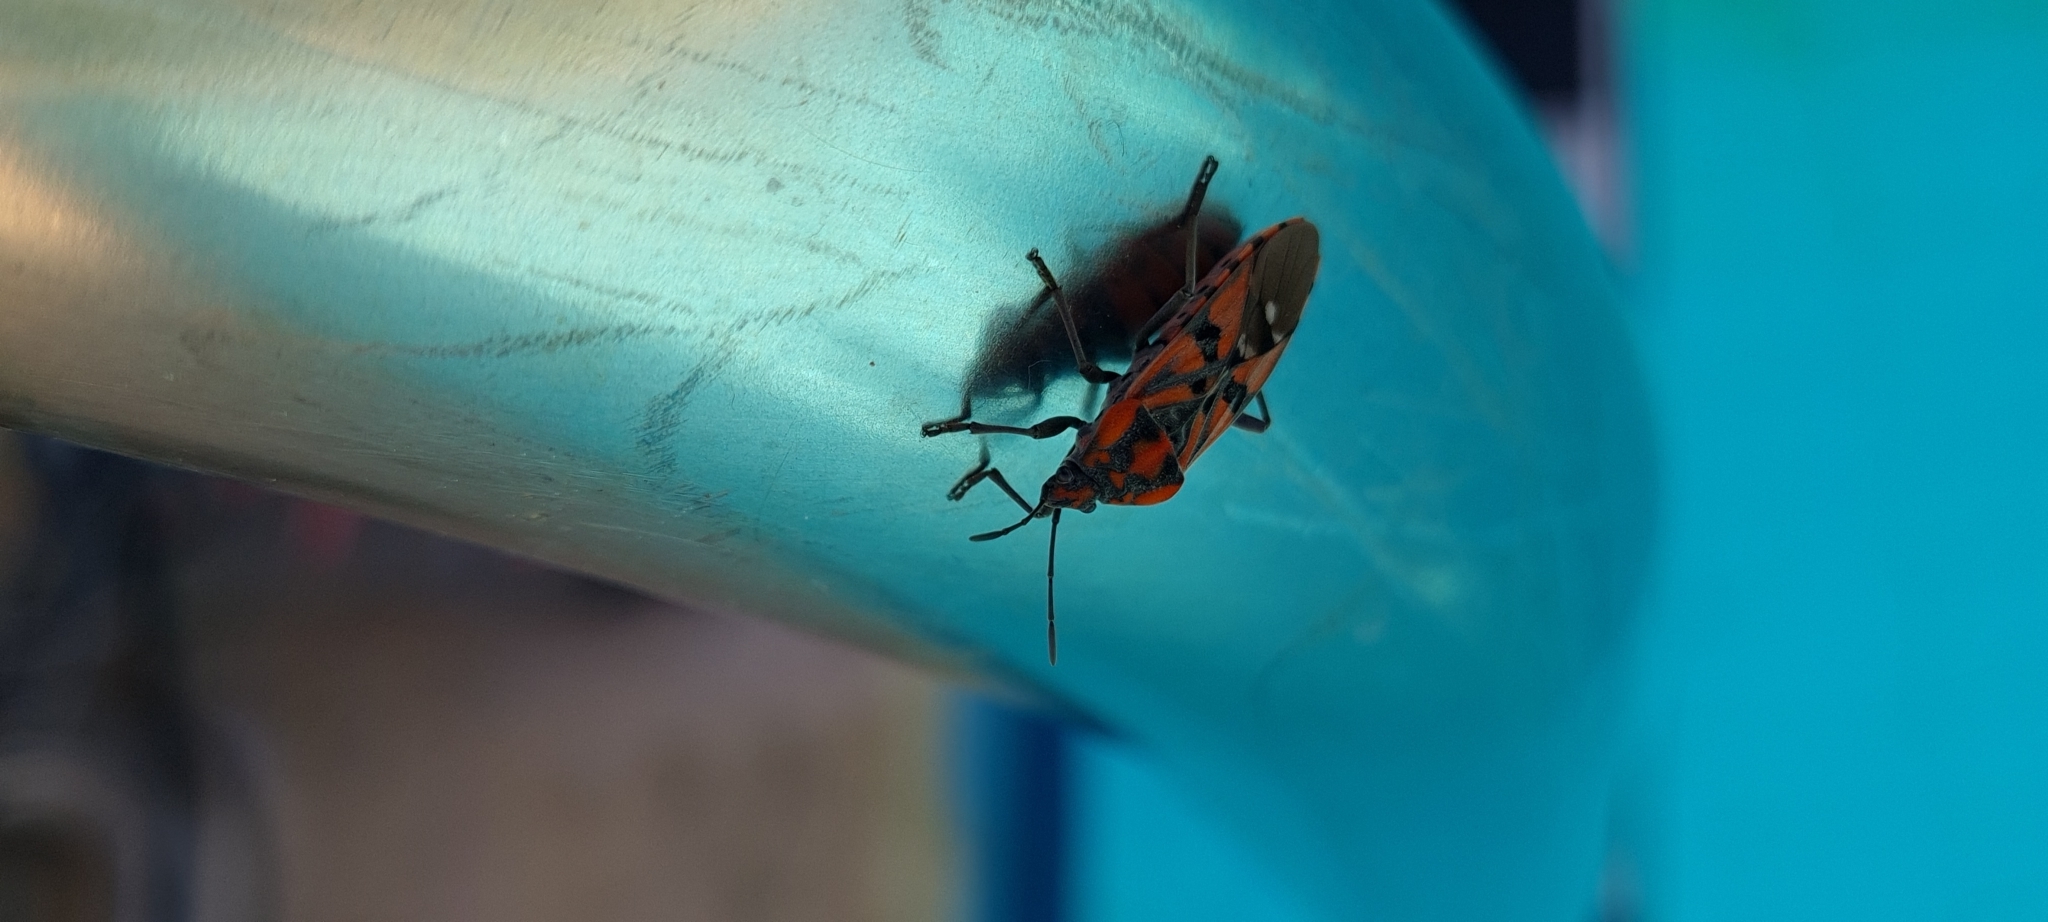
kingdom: Animalia
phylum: Arthropoda
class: Insecta
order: Hemiptera
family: Lygaeidae
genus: Spilostethus
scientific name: Spilostethus pandurus
